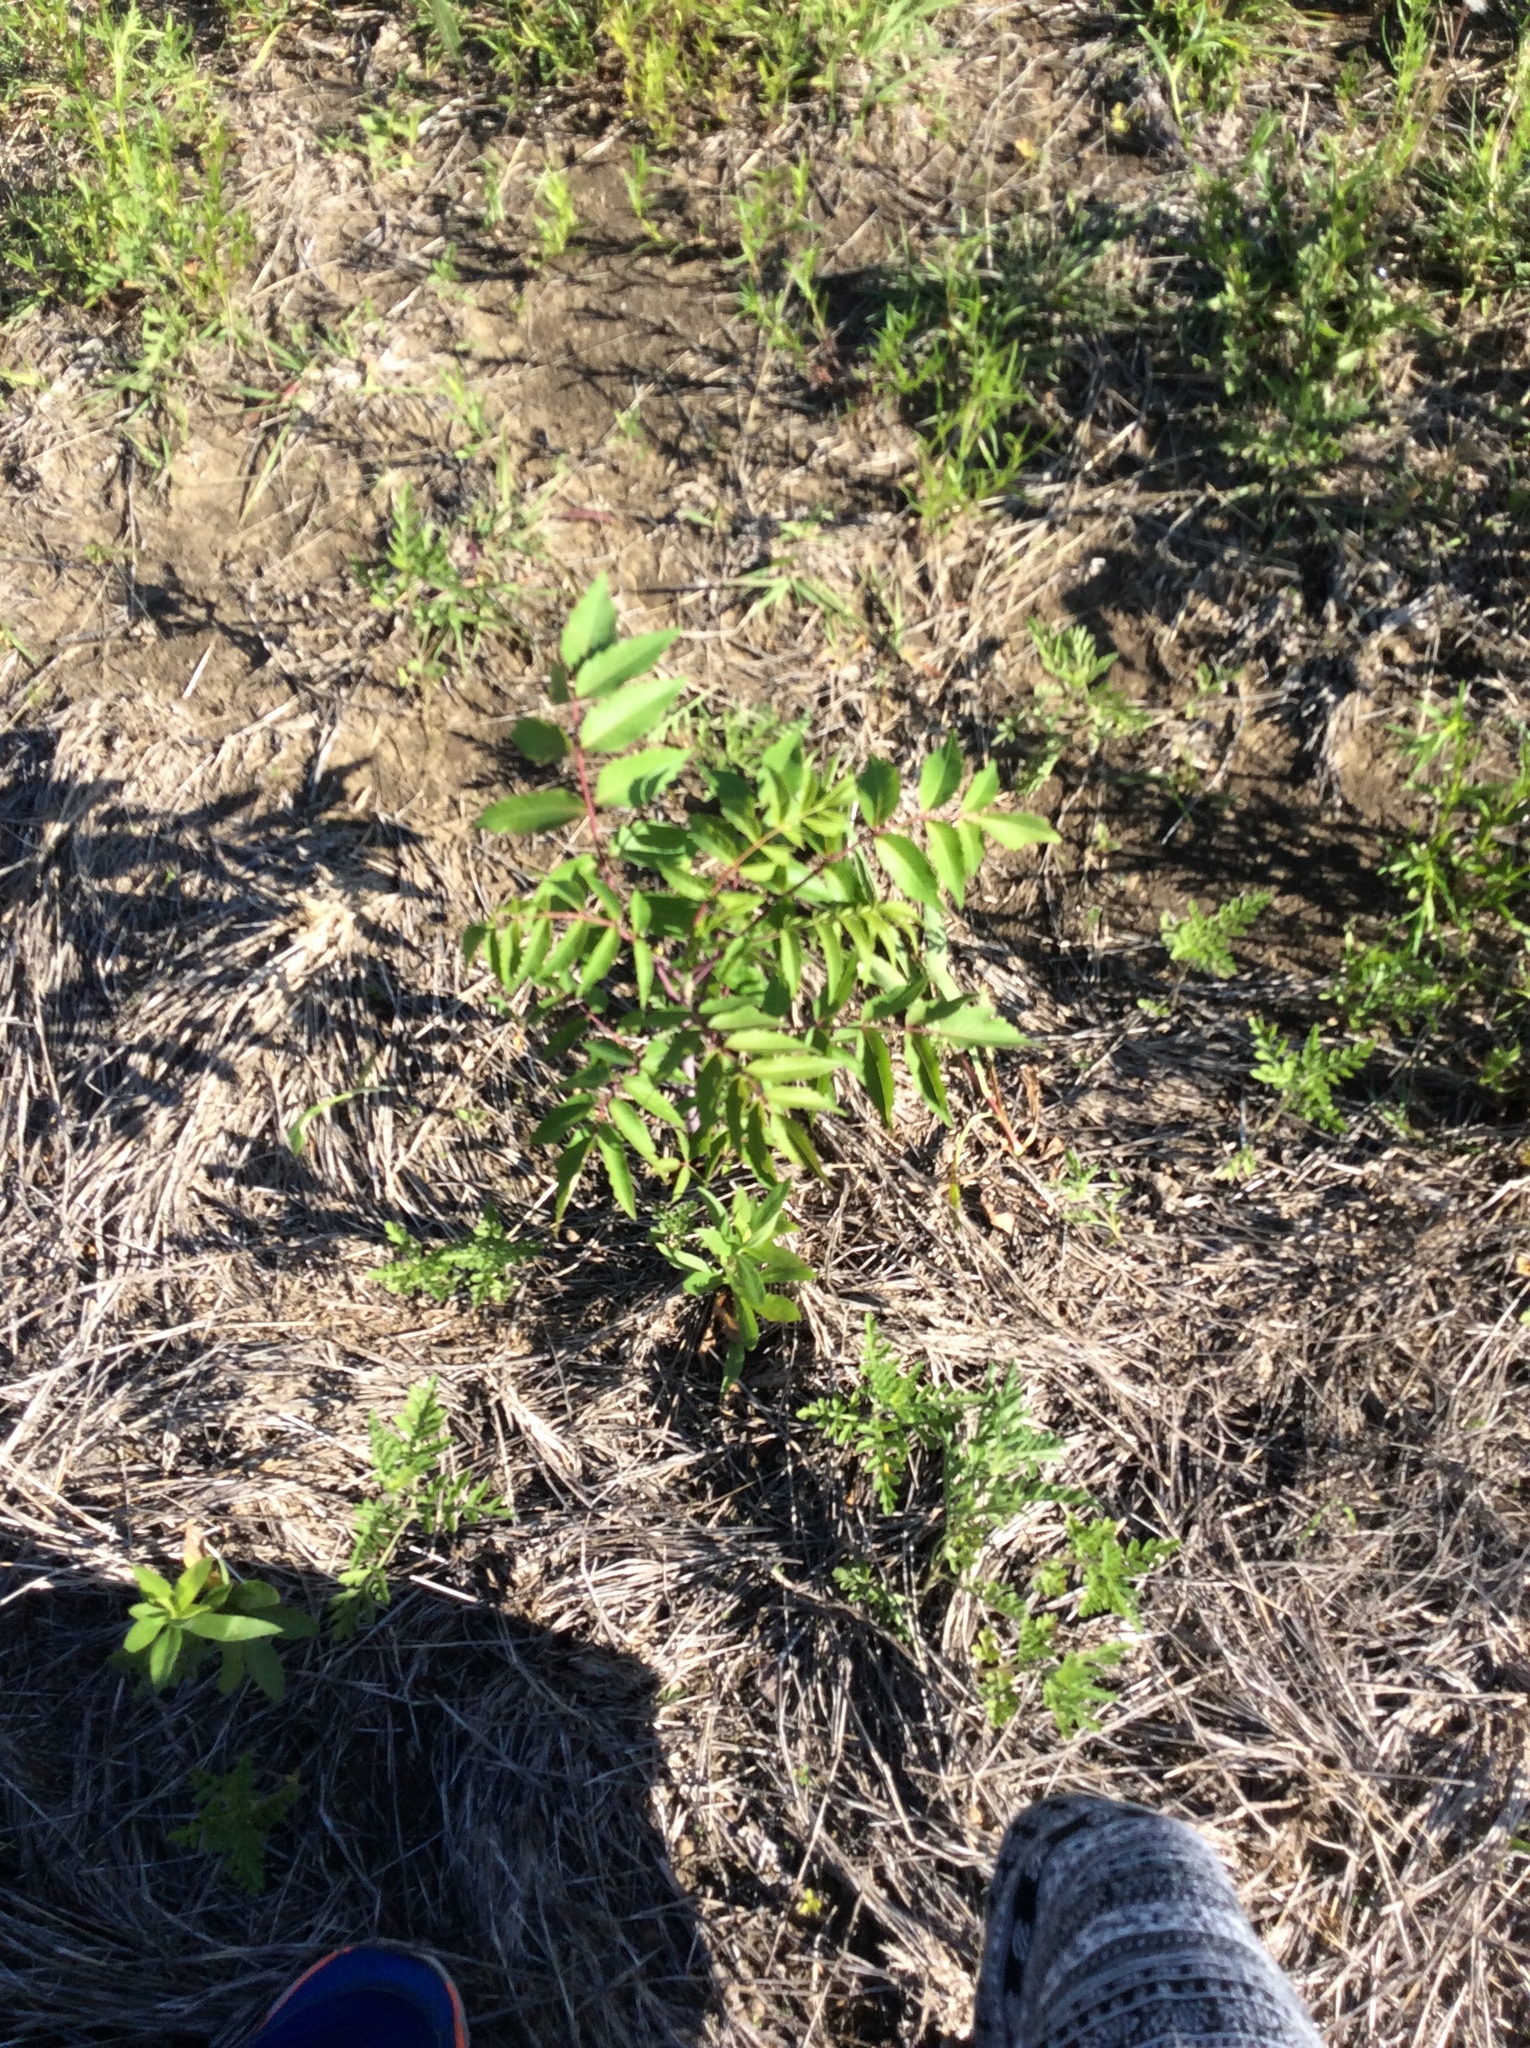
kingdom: Plantae
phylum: Tracheophyta
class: Magnoliopsida
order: Sapindales
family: Anacardiaceae
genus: Rhus
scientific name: Rhus glabra
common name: Scarlet sumac
